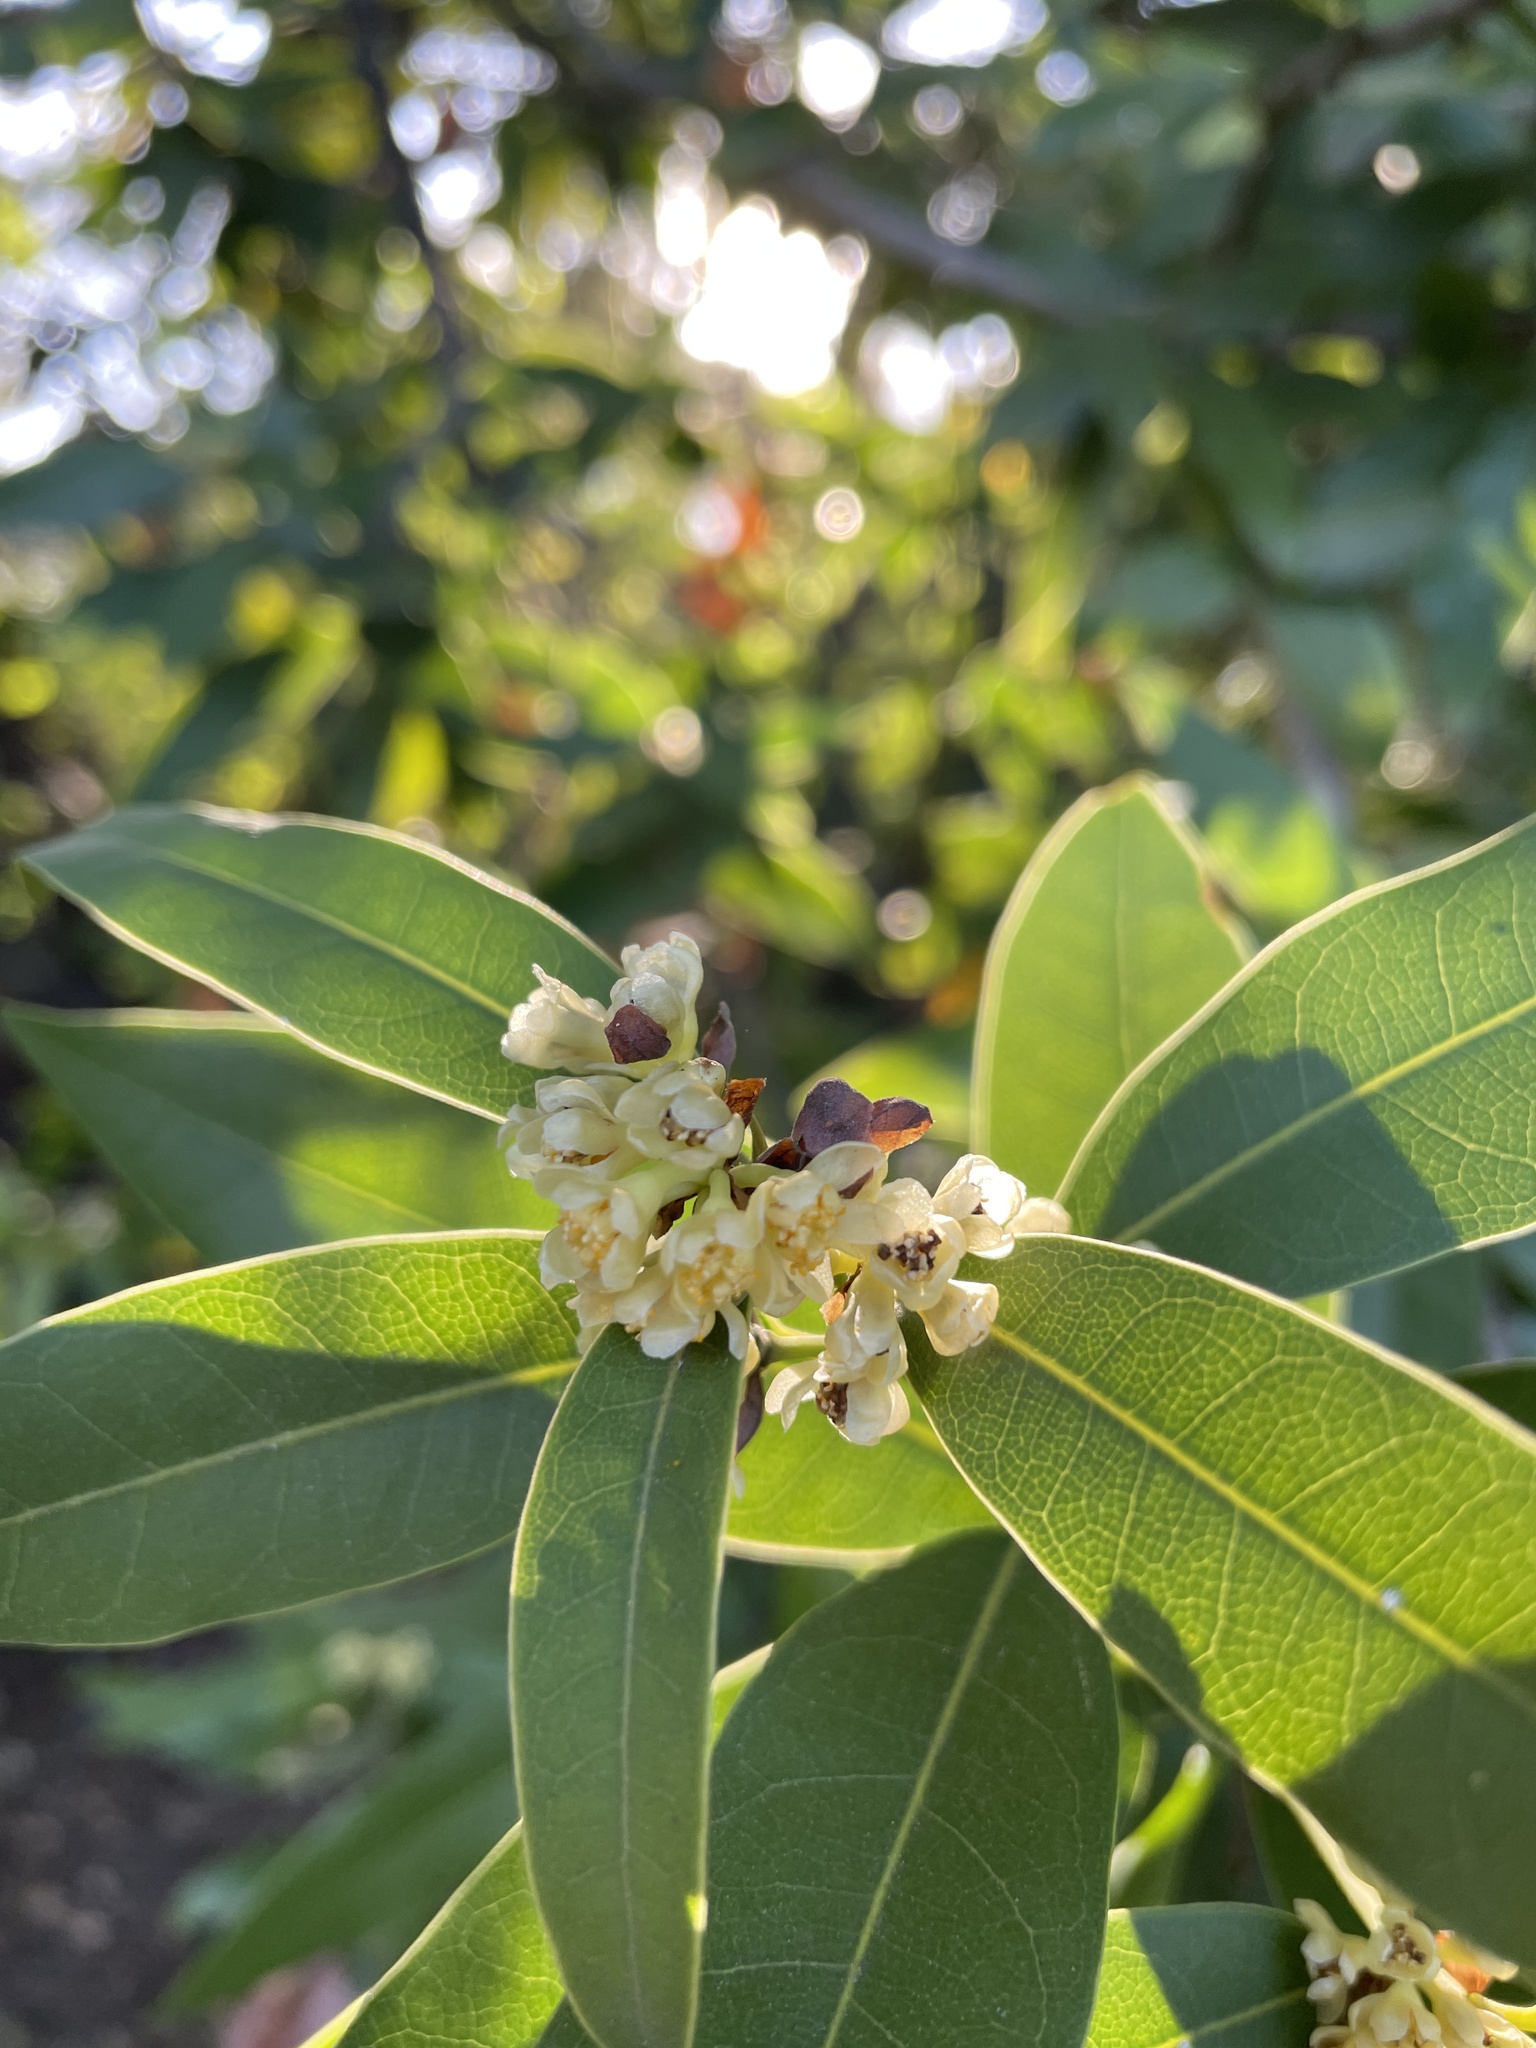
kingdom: Plantae
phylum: Tracheophyta
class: Magnoliopsida
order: Laurales
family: Lauraceae
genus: Umbellularia
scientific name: Umbellularia californica
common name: California bay
